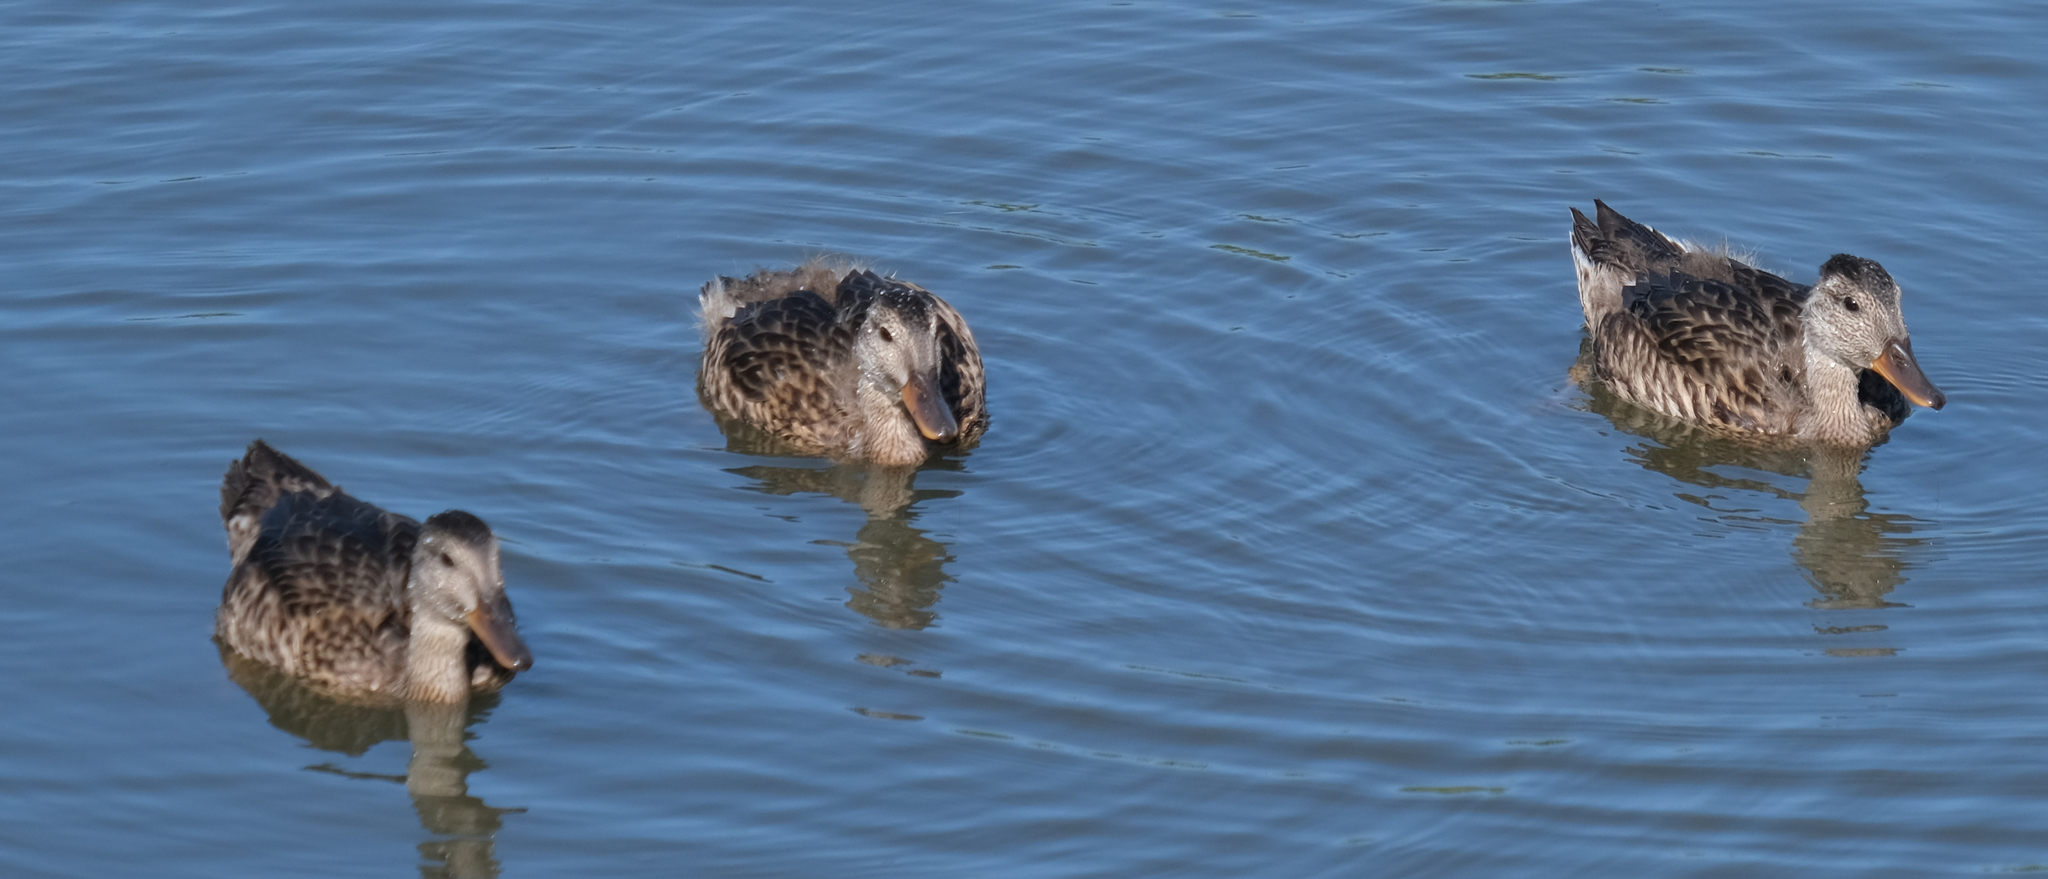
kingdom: Animalia
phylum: Chordata
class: Aves
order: Anseriformes
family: Anatidae
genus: Mareca
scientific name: Mareca strepera
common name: Gadwall
